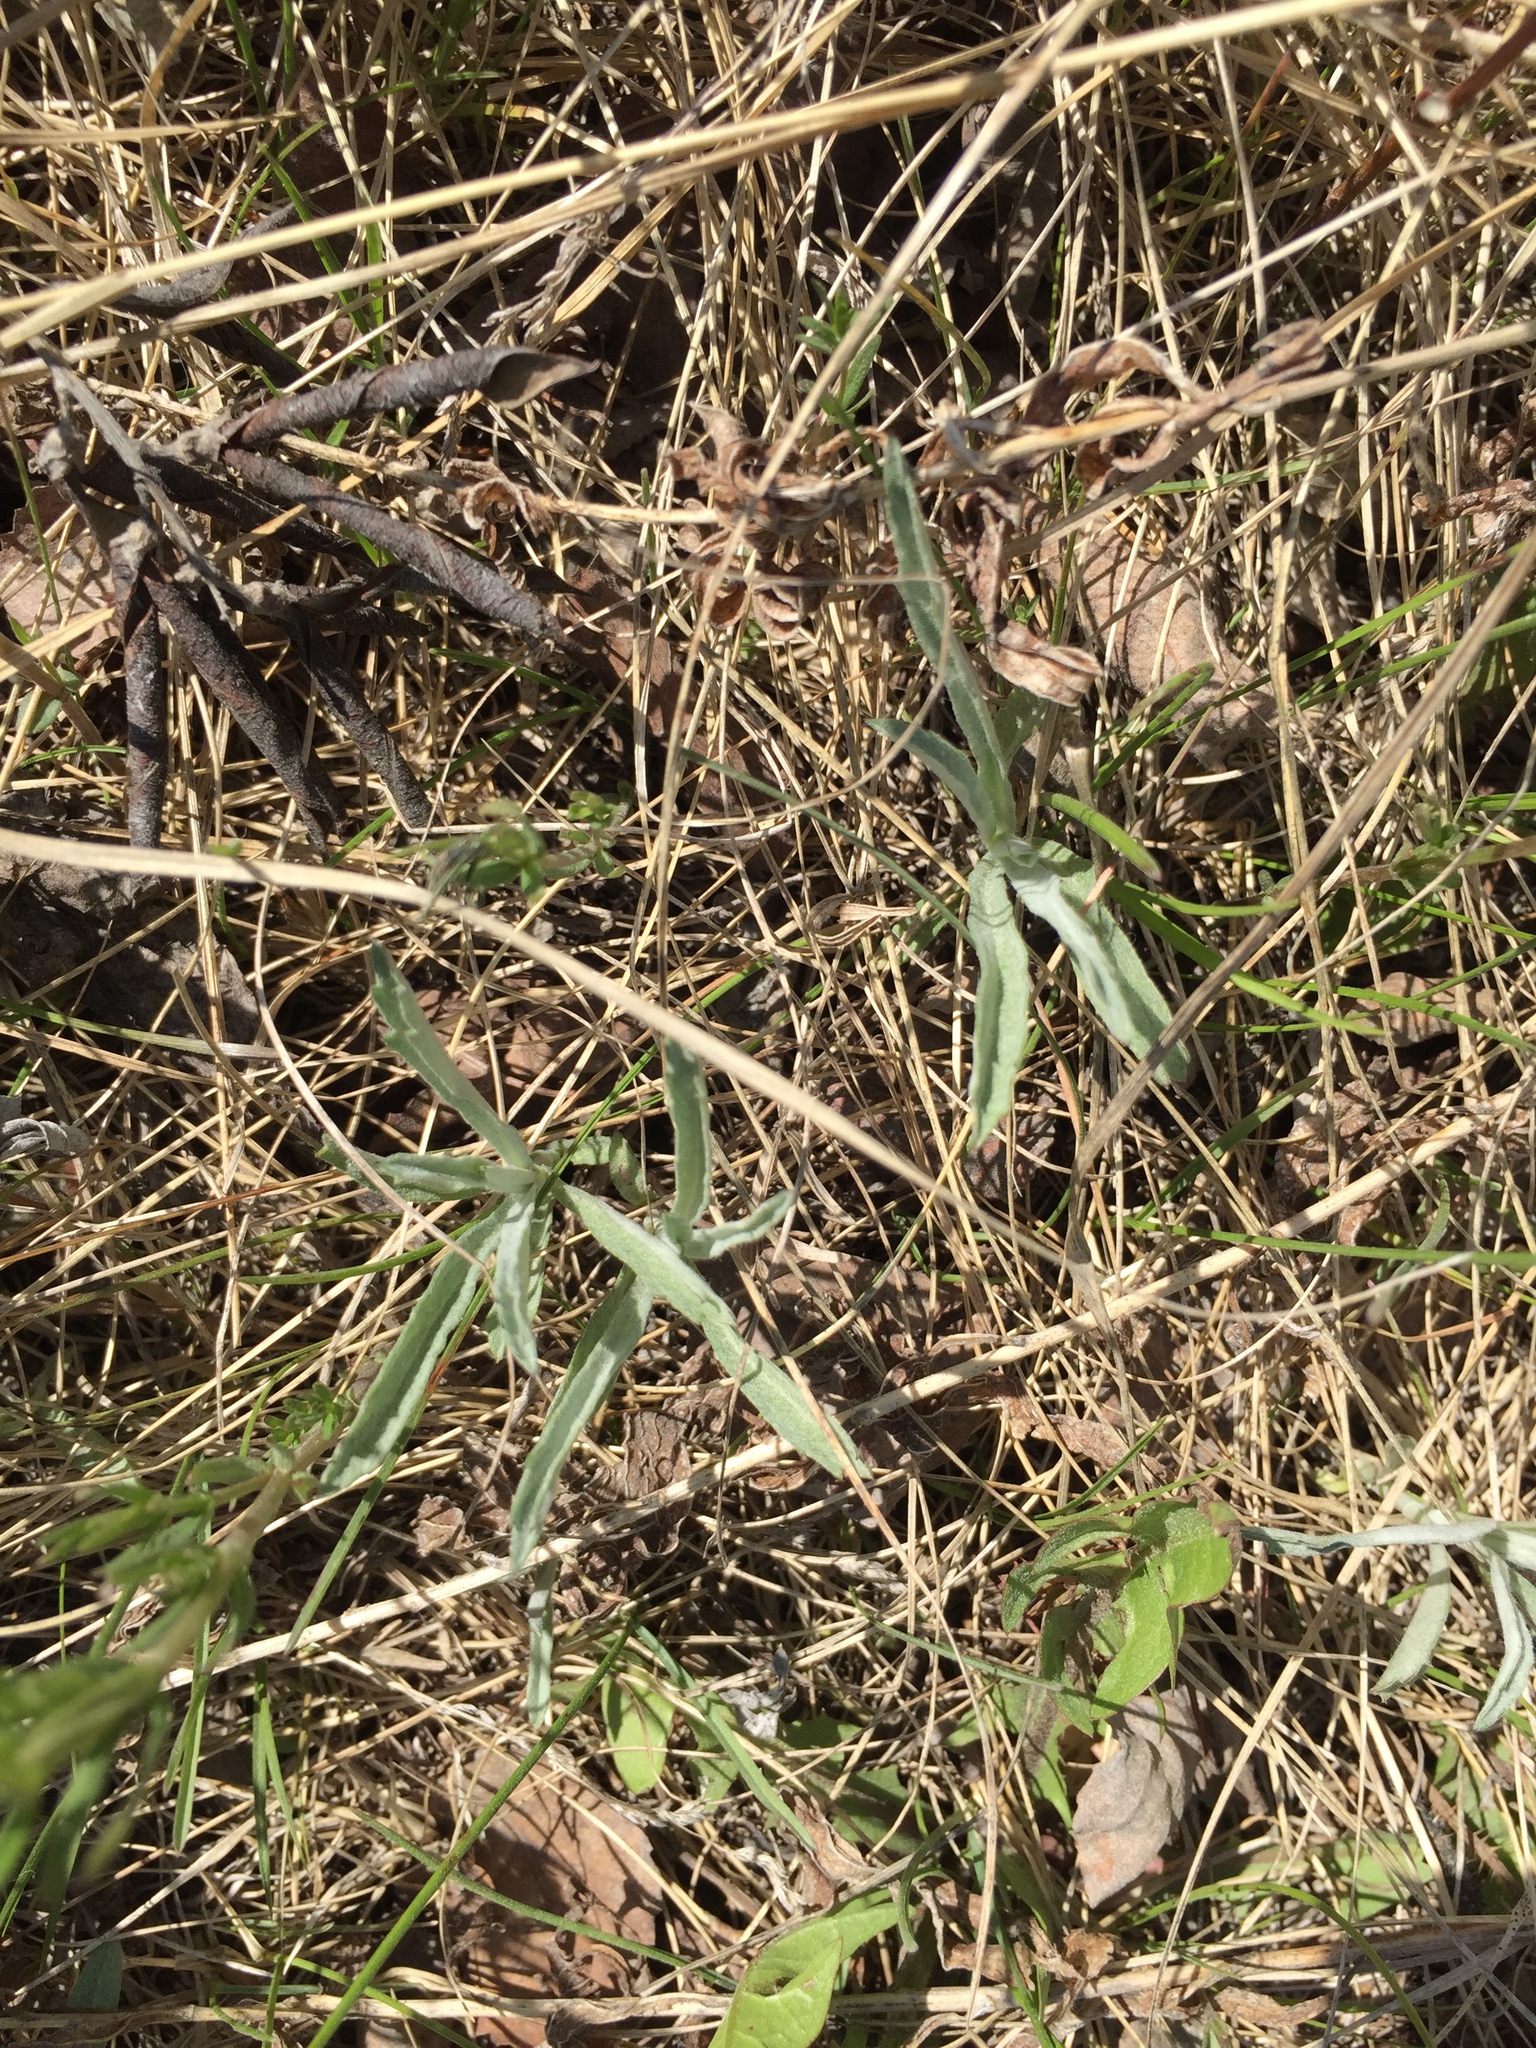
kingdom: Plantae
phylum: Tracheophyta
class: Magnoliopsida
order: Asterales
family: Asteraceae
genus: Artemisia
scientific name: Artemisia ludoviciana
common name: Western mugwort
